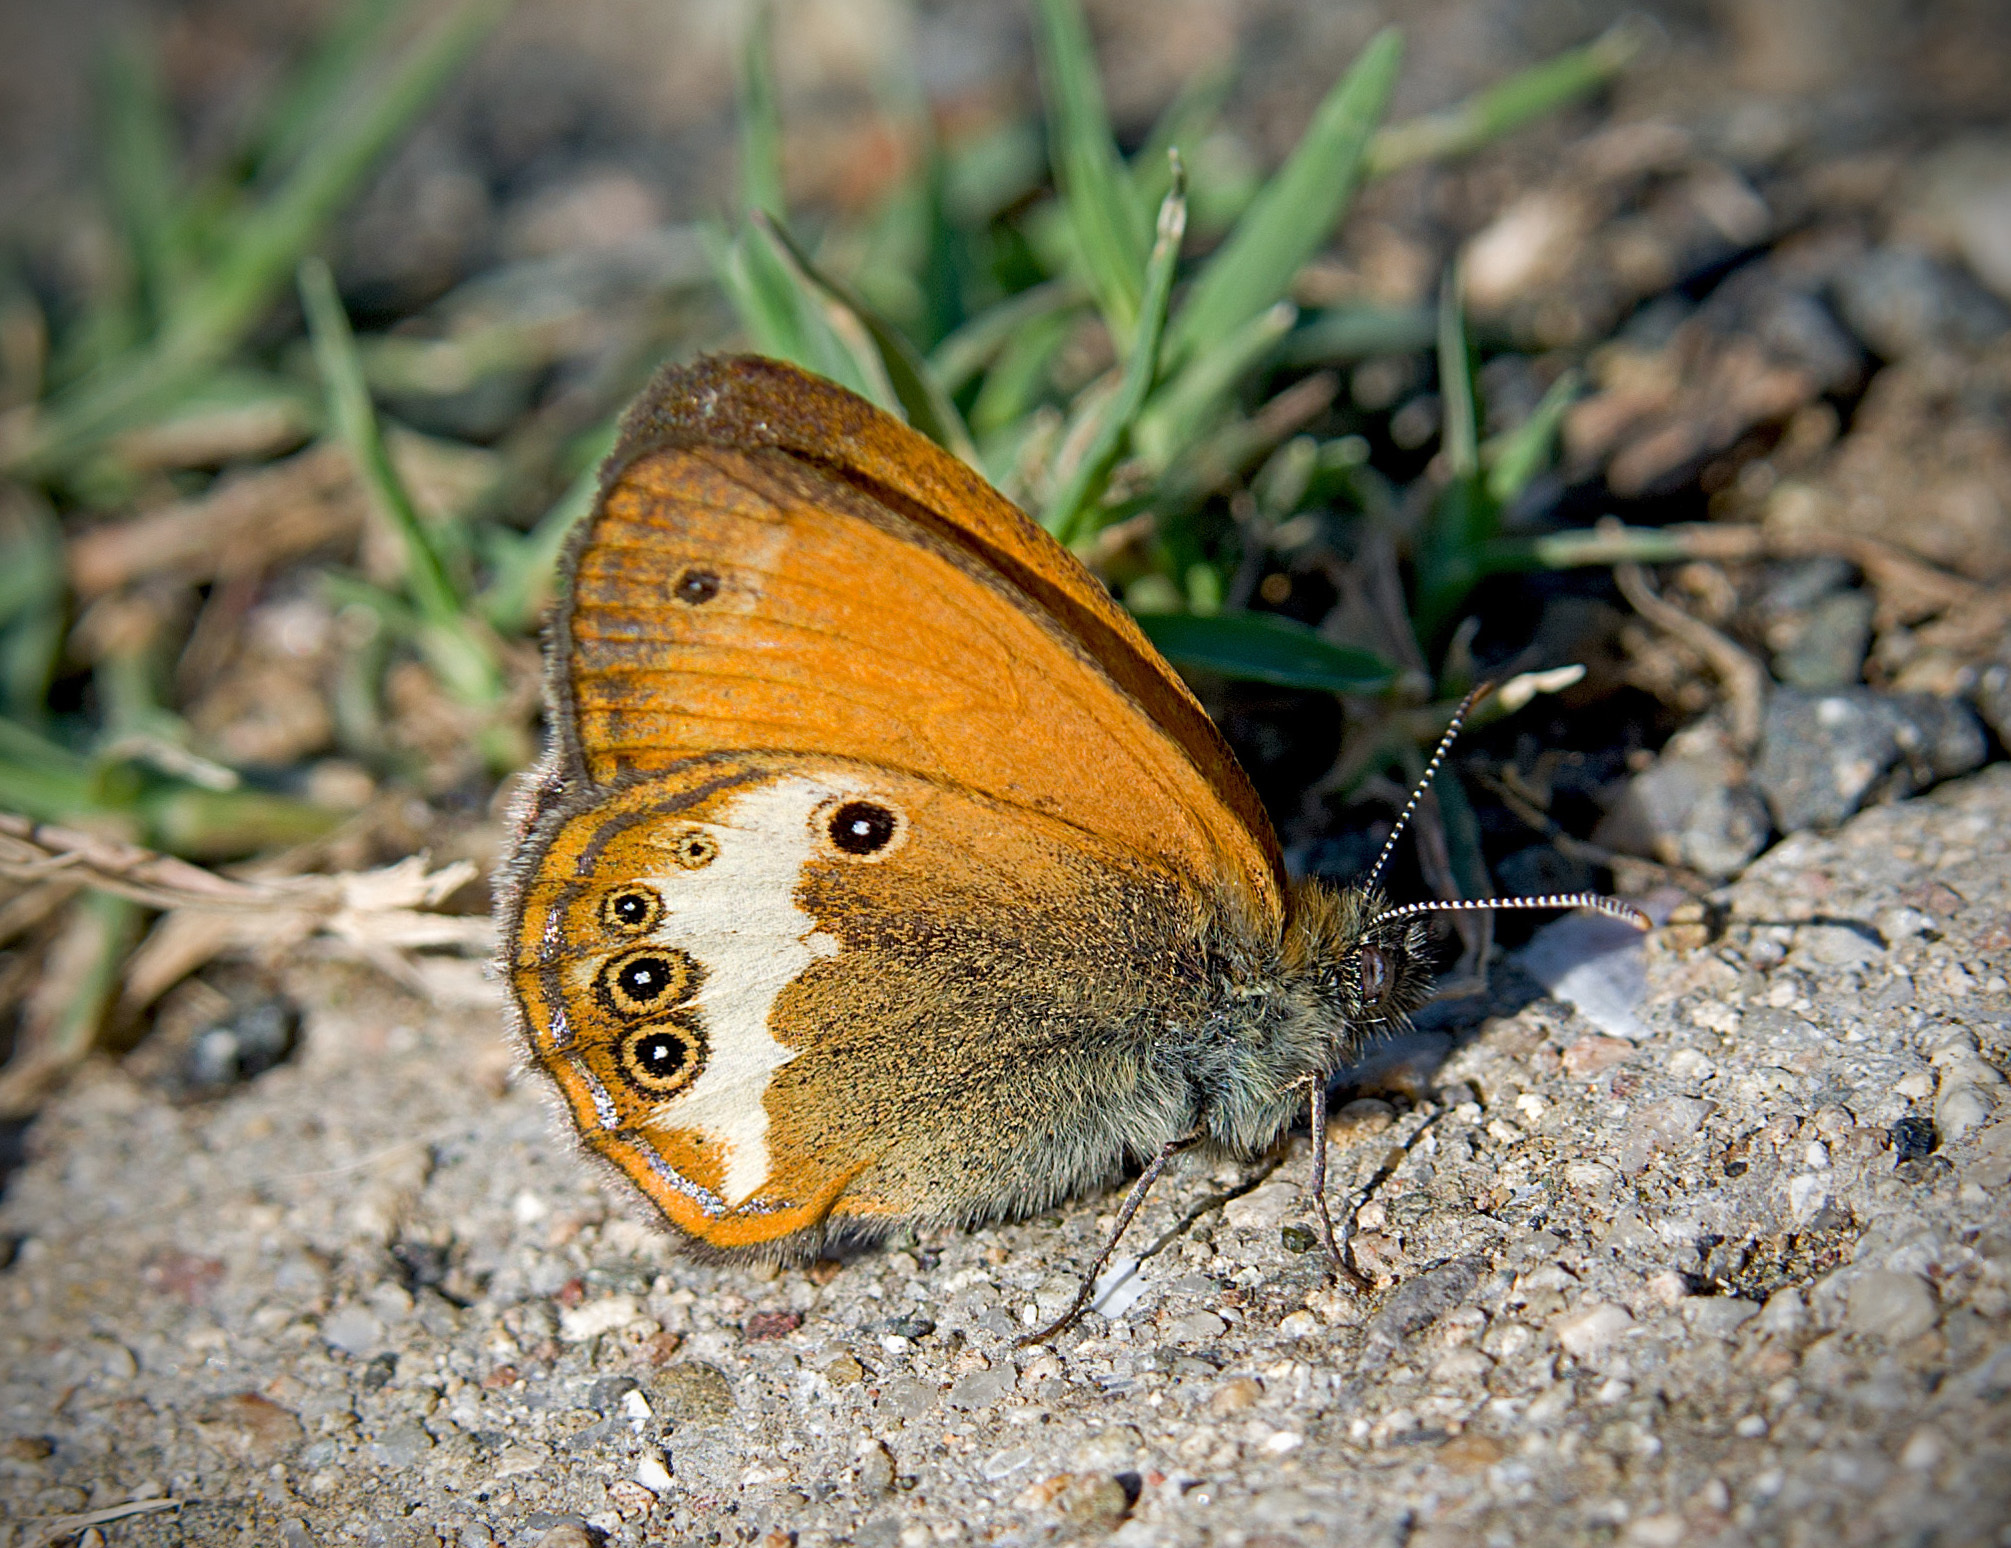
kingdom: Animalia
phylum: Arthropoda
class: Insecta
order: Lepidoptera
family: Nymphalidae
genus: Coenonympha
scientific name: Coenonympha arcania
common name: Pearly heath
